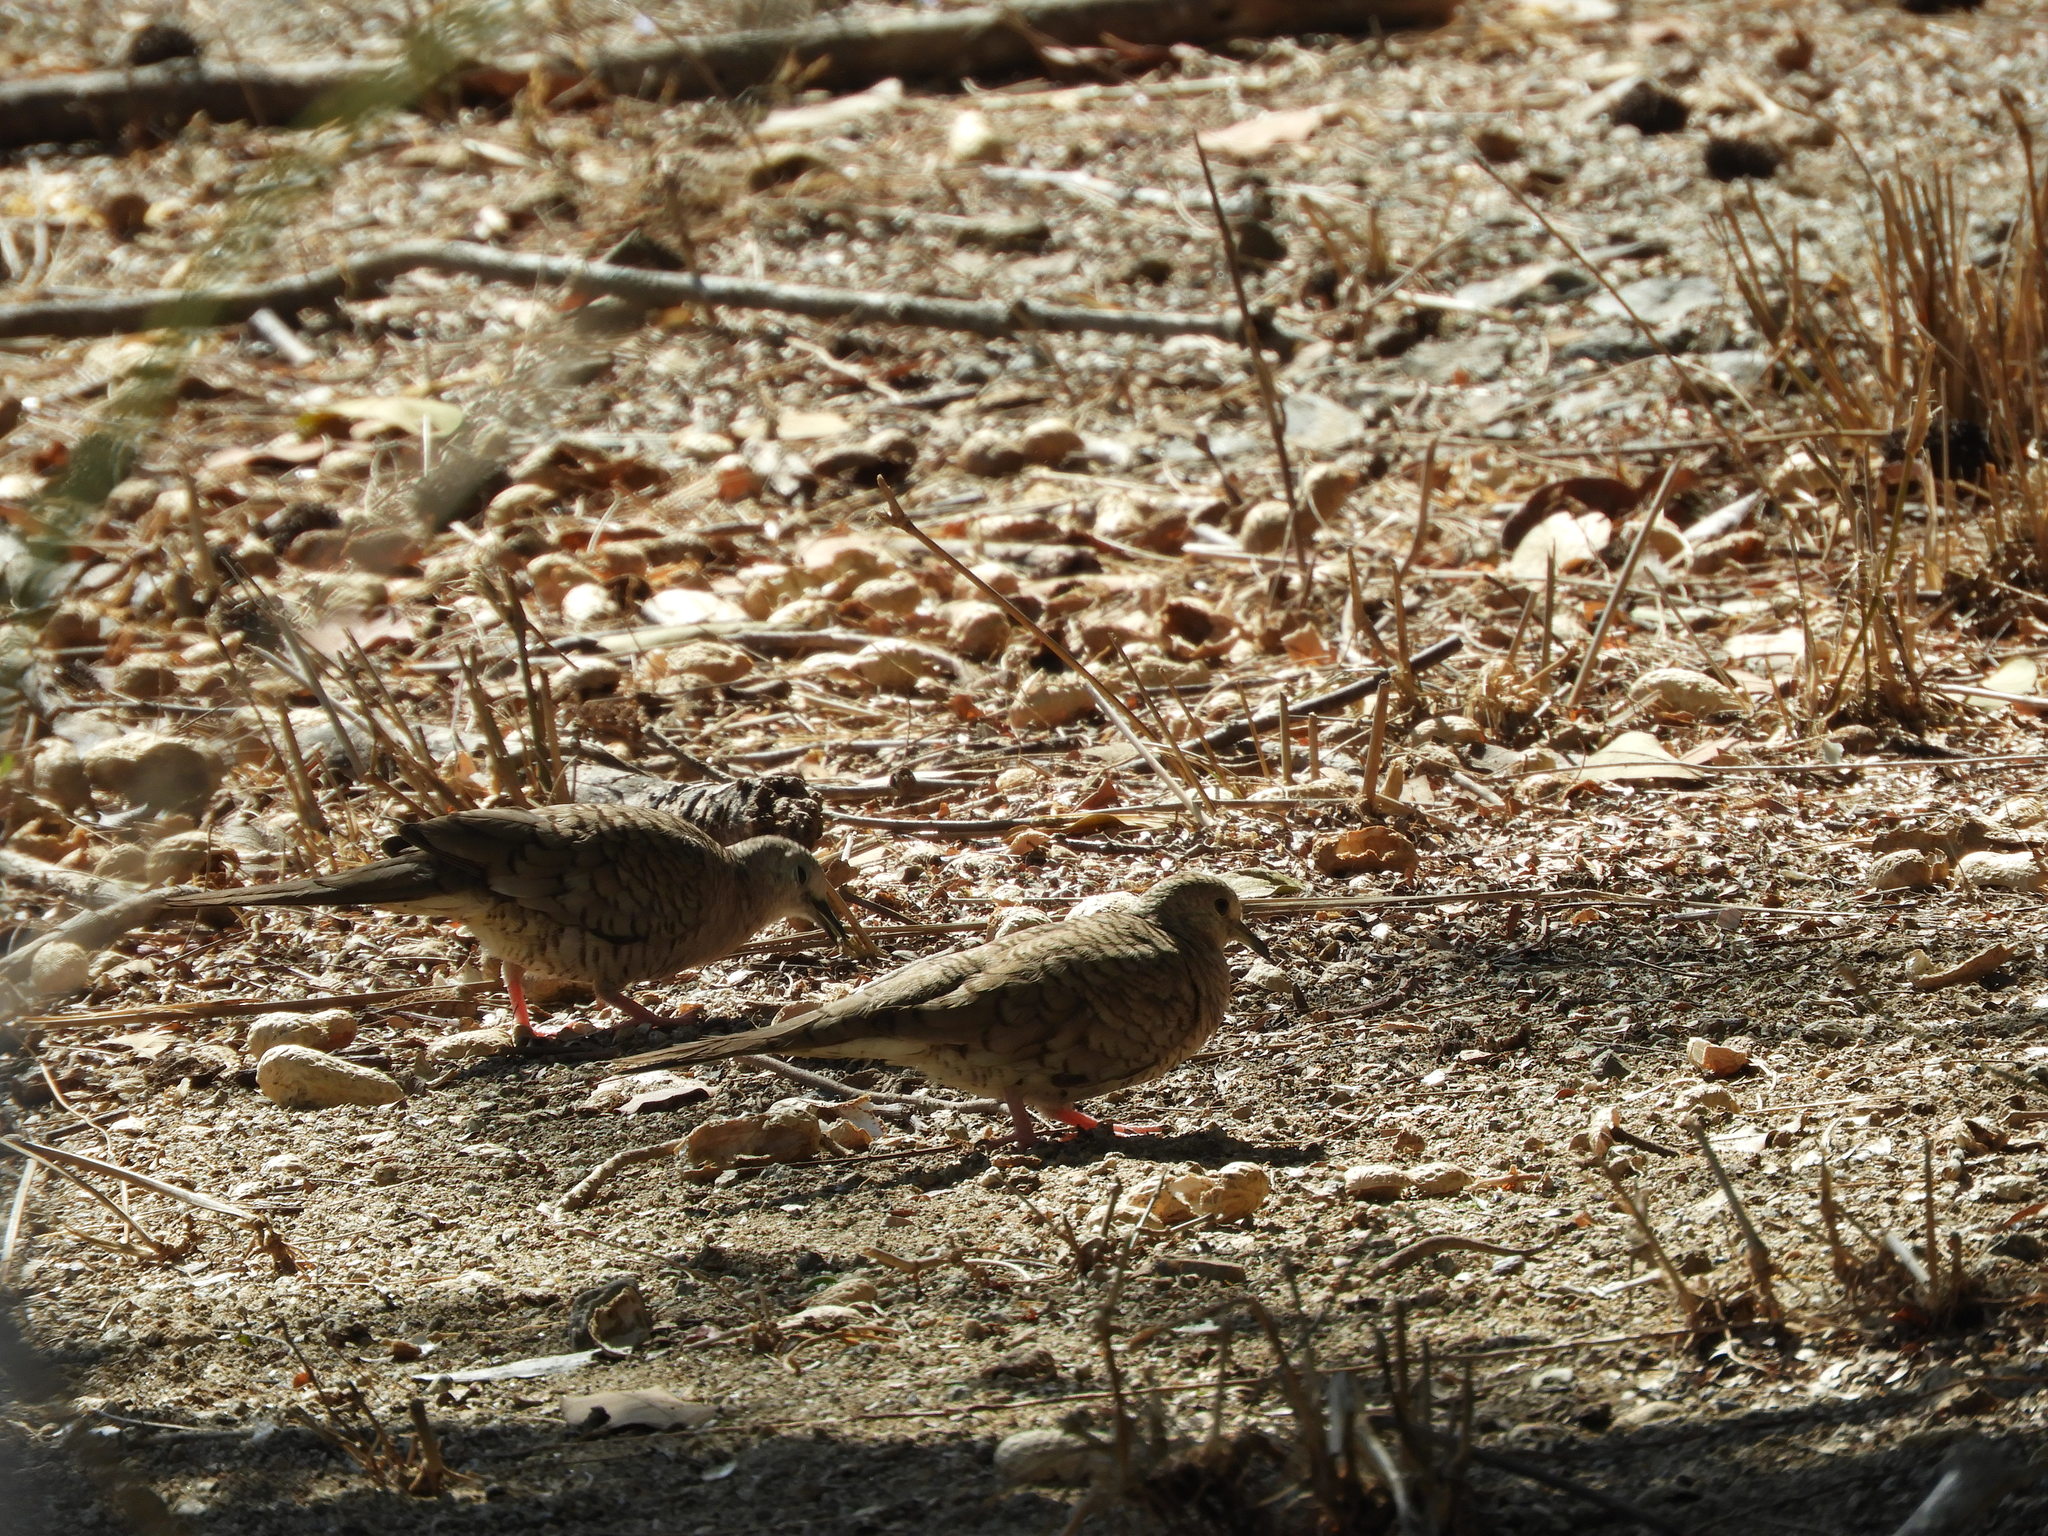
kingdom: Animalia
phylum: Chordata
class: Aves
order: Columbiformes
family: Columbidae
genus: Columbina
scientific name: Columbina inca
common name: Inca dove
